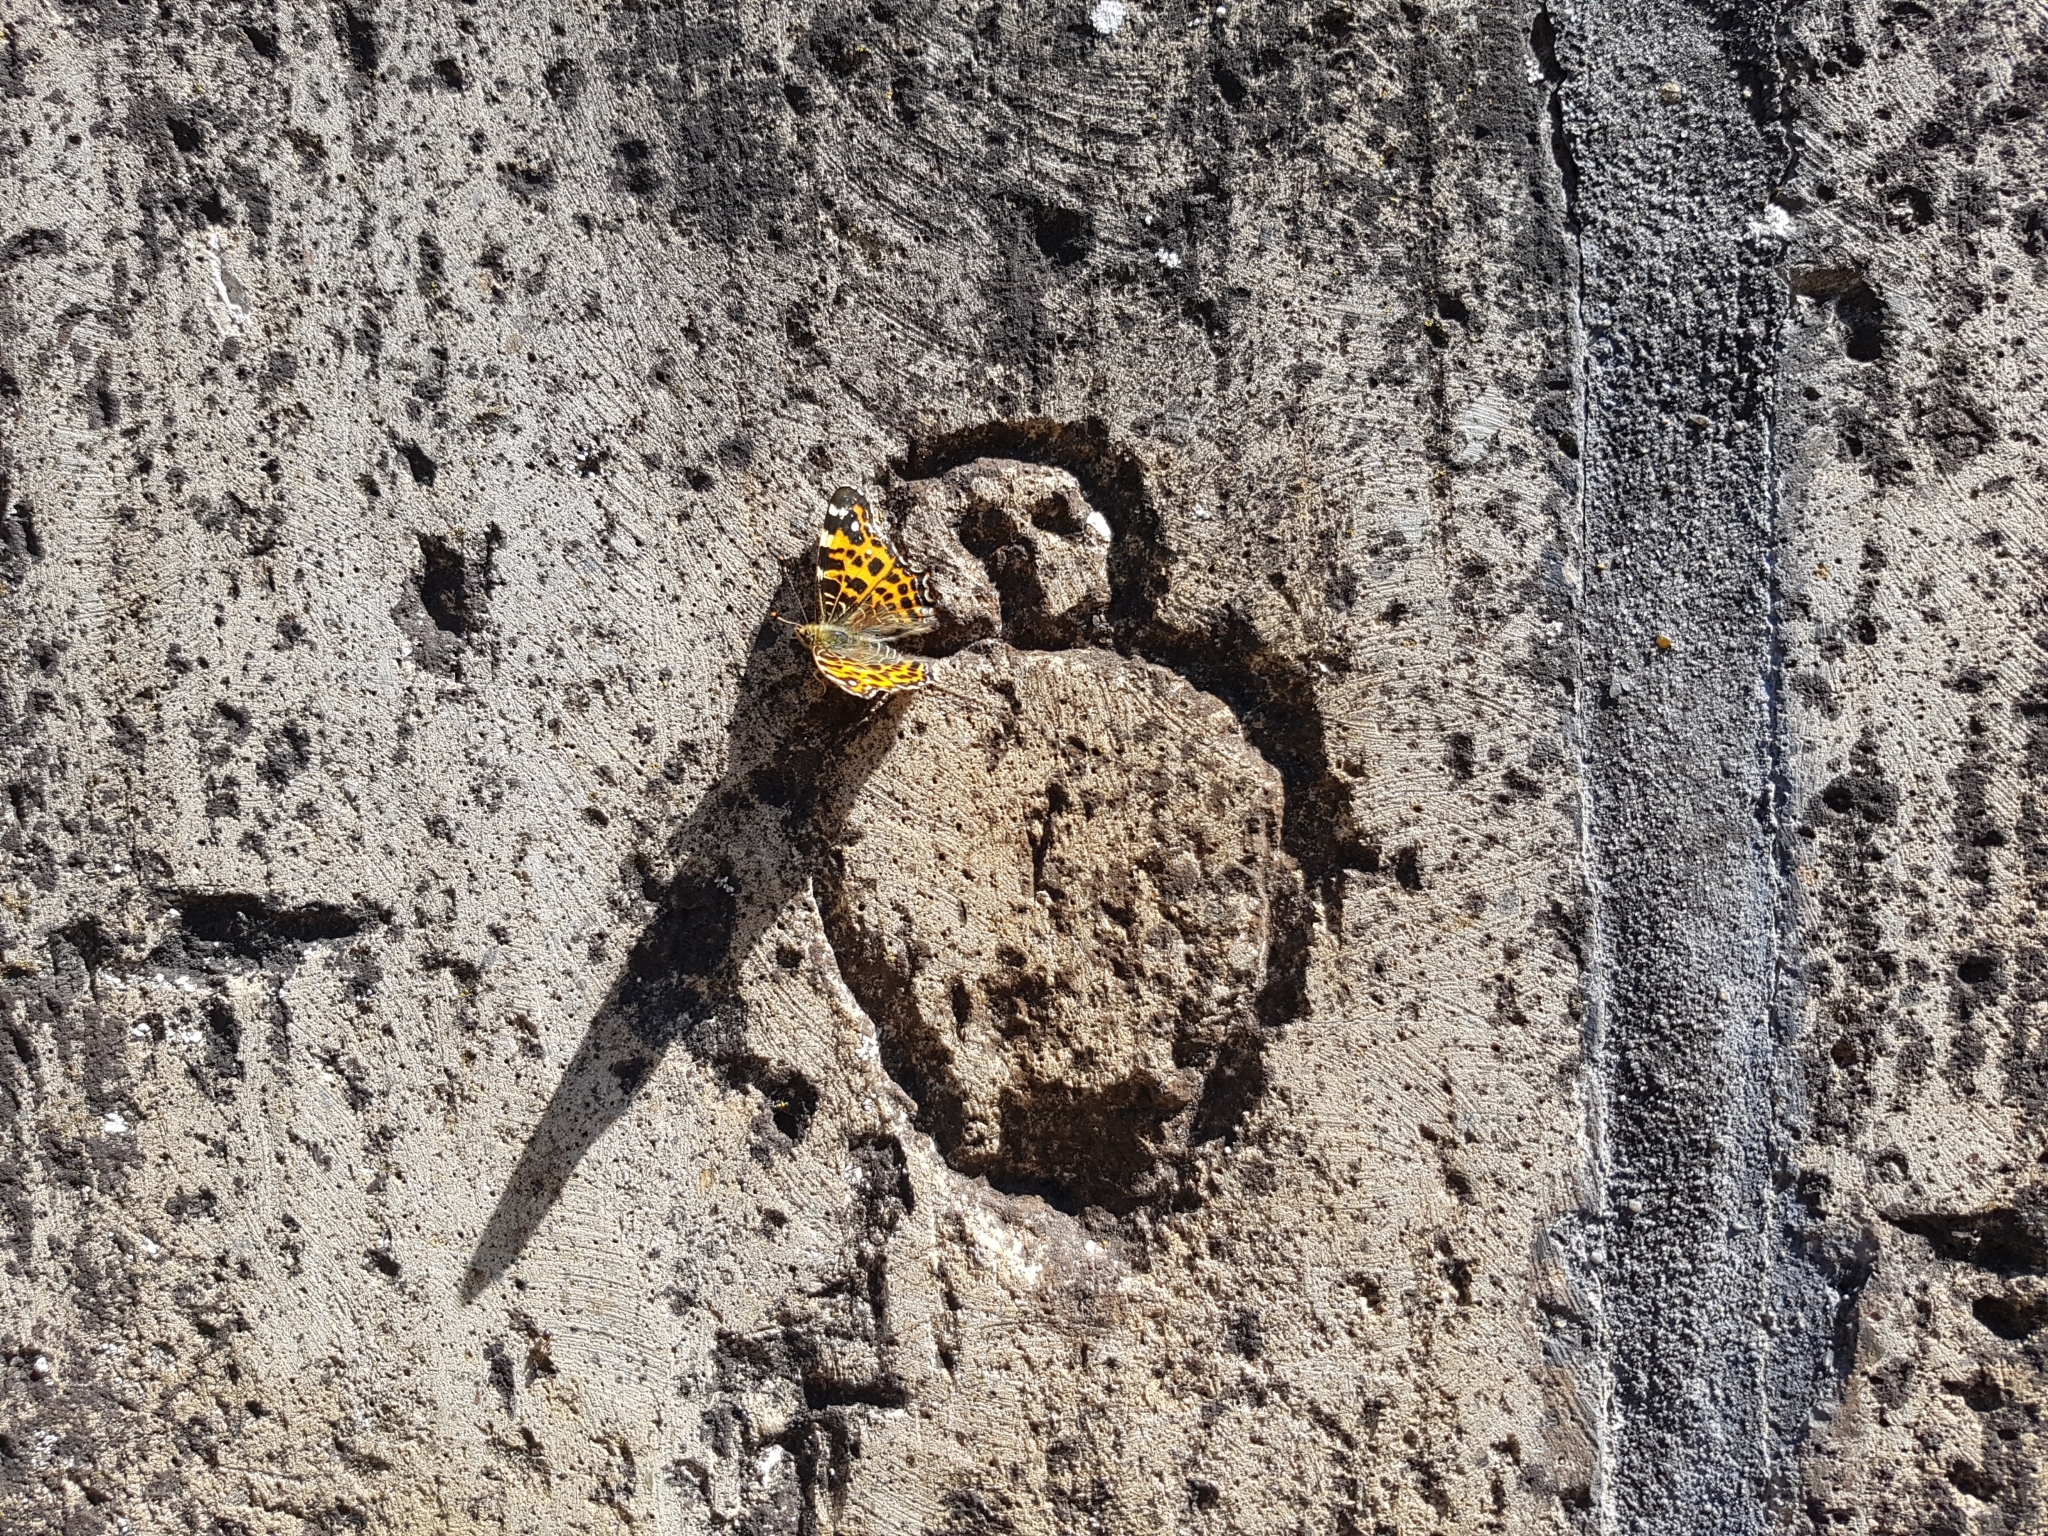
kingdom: Animalia
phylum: Arthropoda
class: Insecta
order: Lepidoptera
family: Nymphalidae
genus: Araschnia
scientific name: Araschnia levana
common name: Map butterfly
